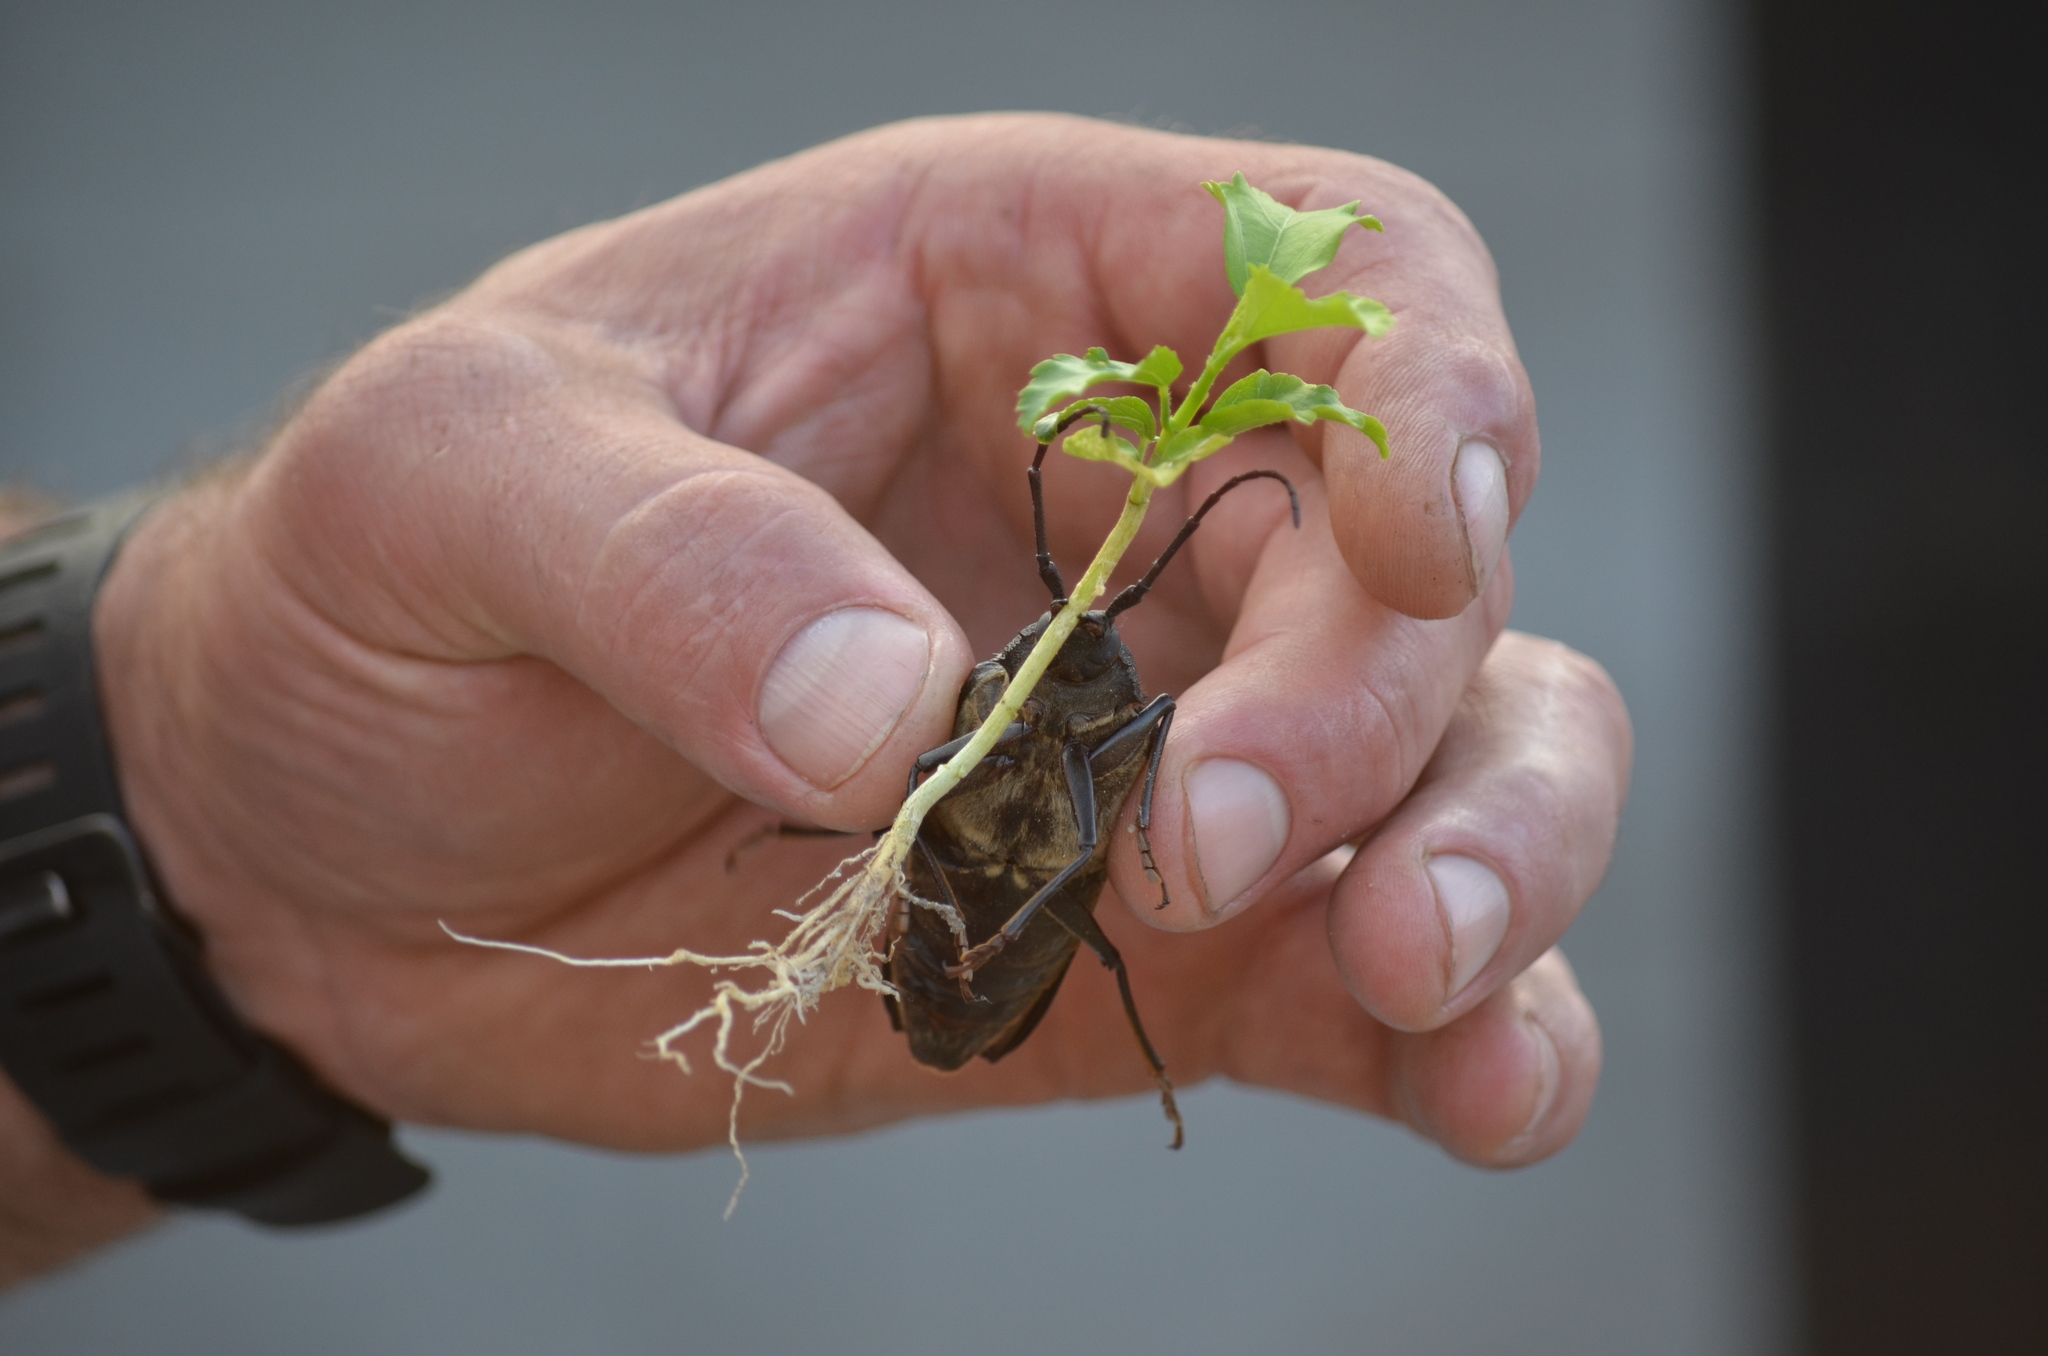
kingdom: Animalia
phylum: Arthropoda
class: Insecta
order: Coleoptera
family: Cerambycidae
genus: Trichocnemis
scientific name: Trichocnemis spiculatus
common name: Long-horned beetle
